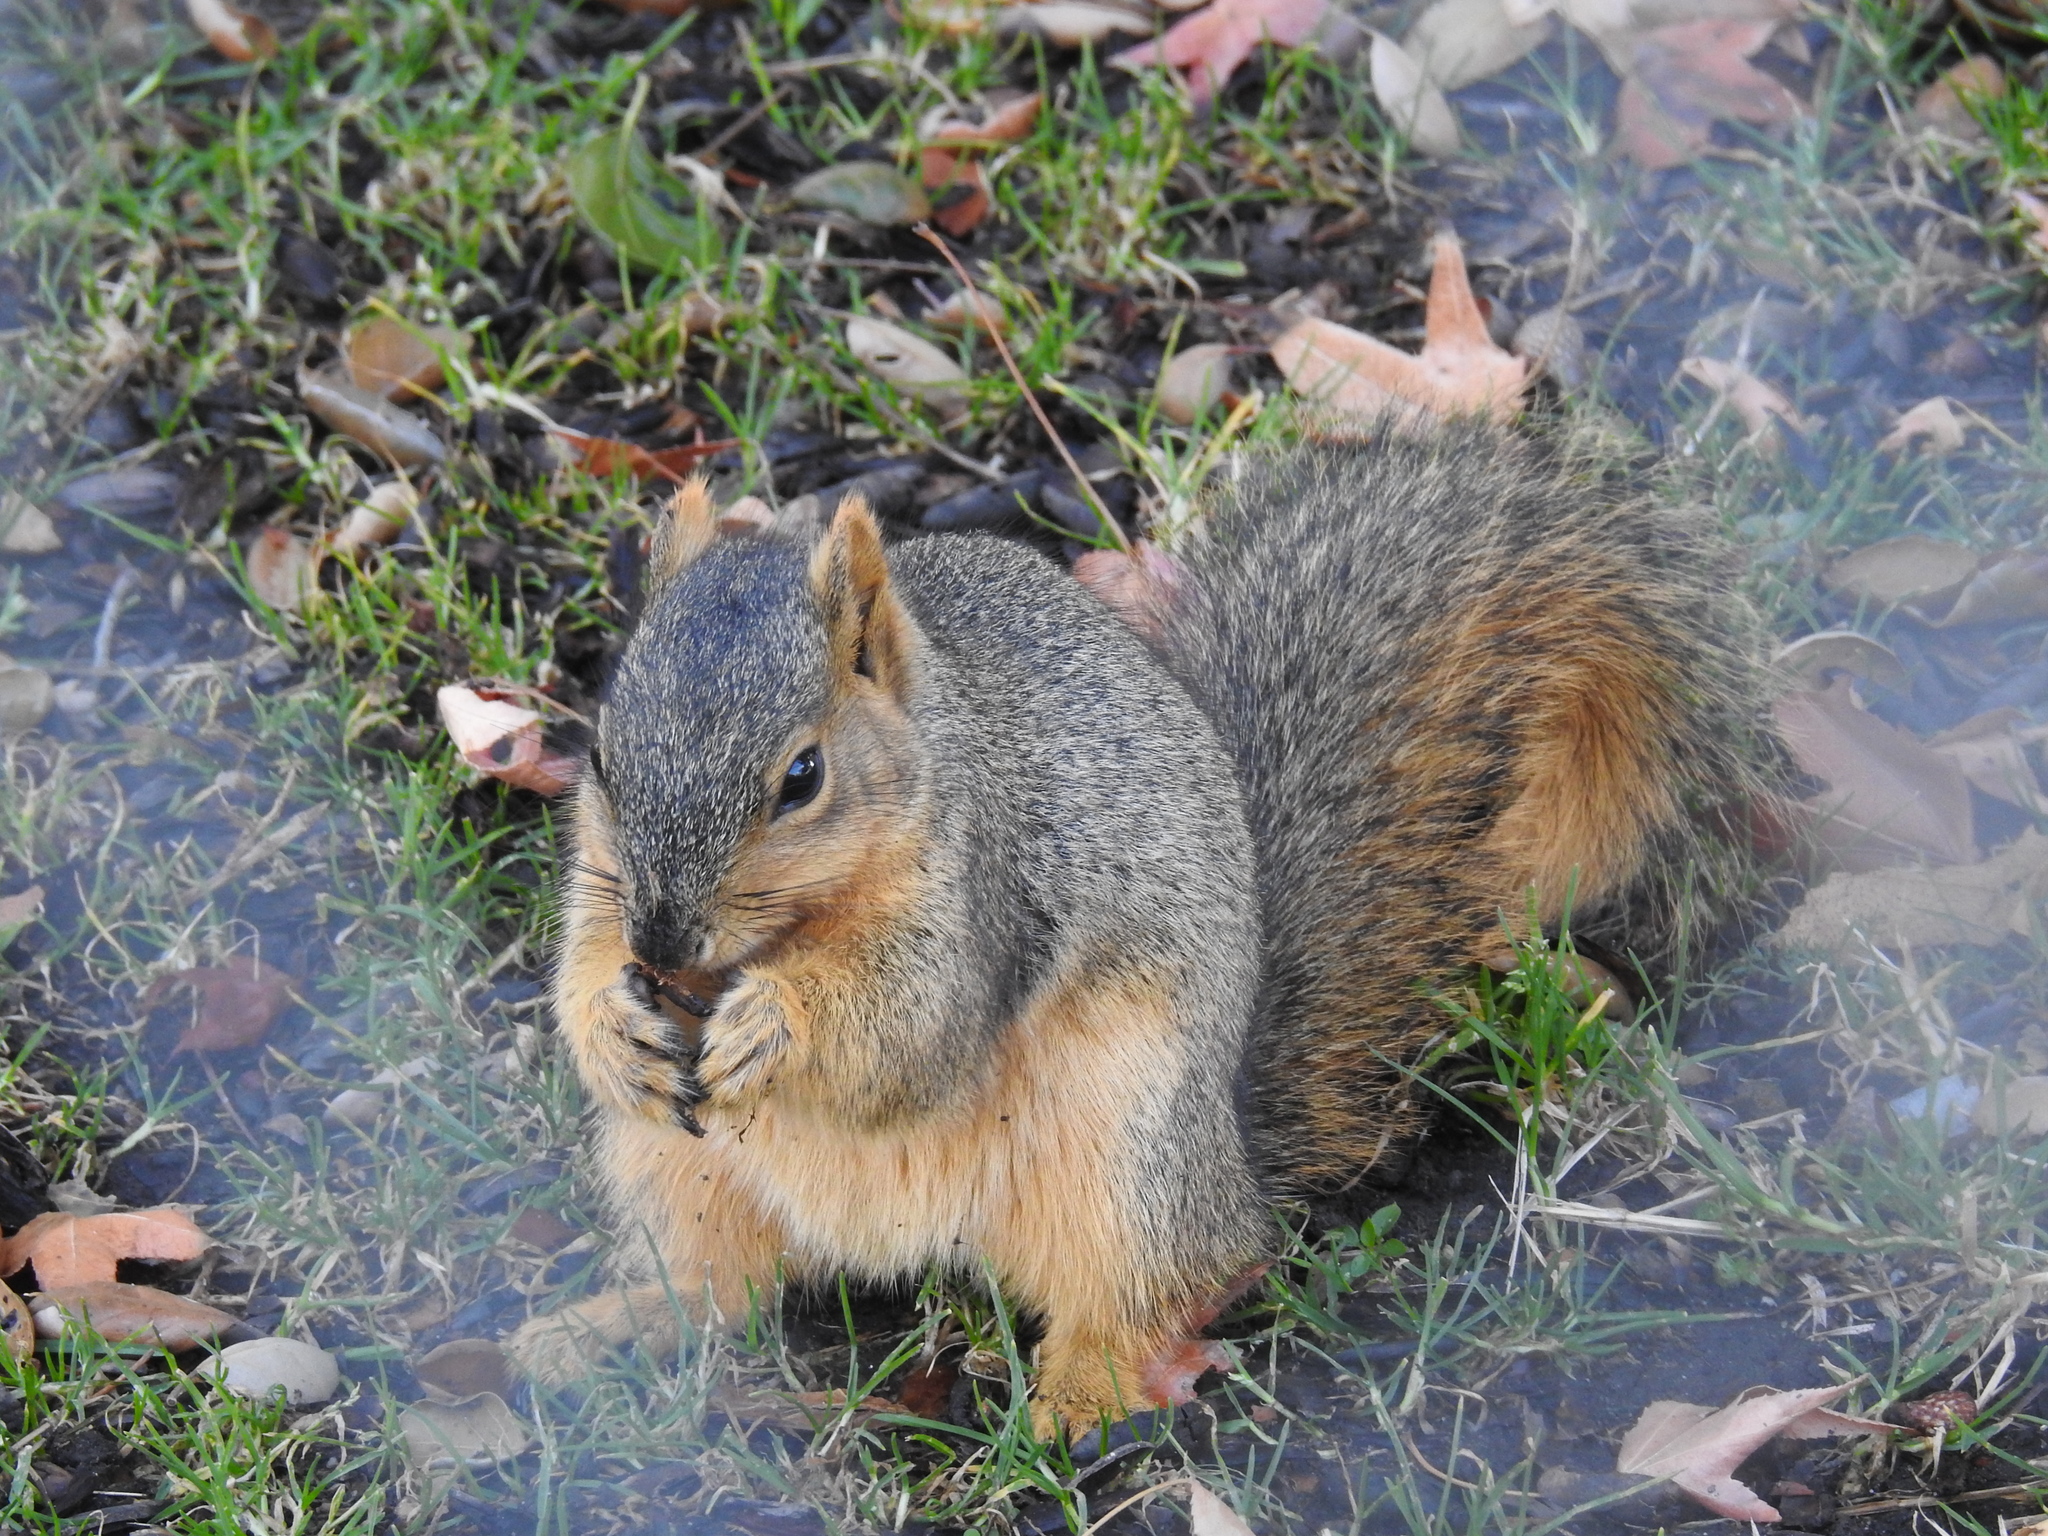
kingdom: Animalia
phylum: Chordata
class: Mammalia
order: Rodentia
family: Sciuridae
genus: Sciurus
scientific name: Sciurus niger
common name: Fox squirrel
